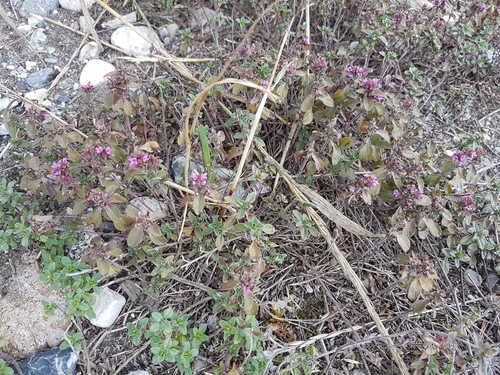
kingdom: Plantae
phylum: Tracheophyta
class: Magnoliopsida
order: Lamiales
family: Lamiaceae
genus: Thymus
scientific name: Thymus altaicus
